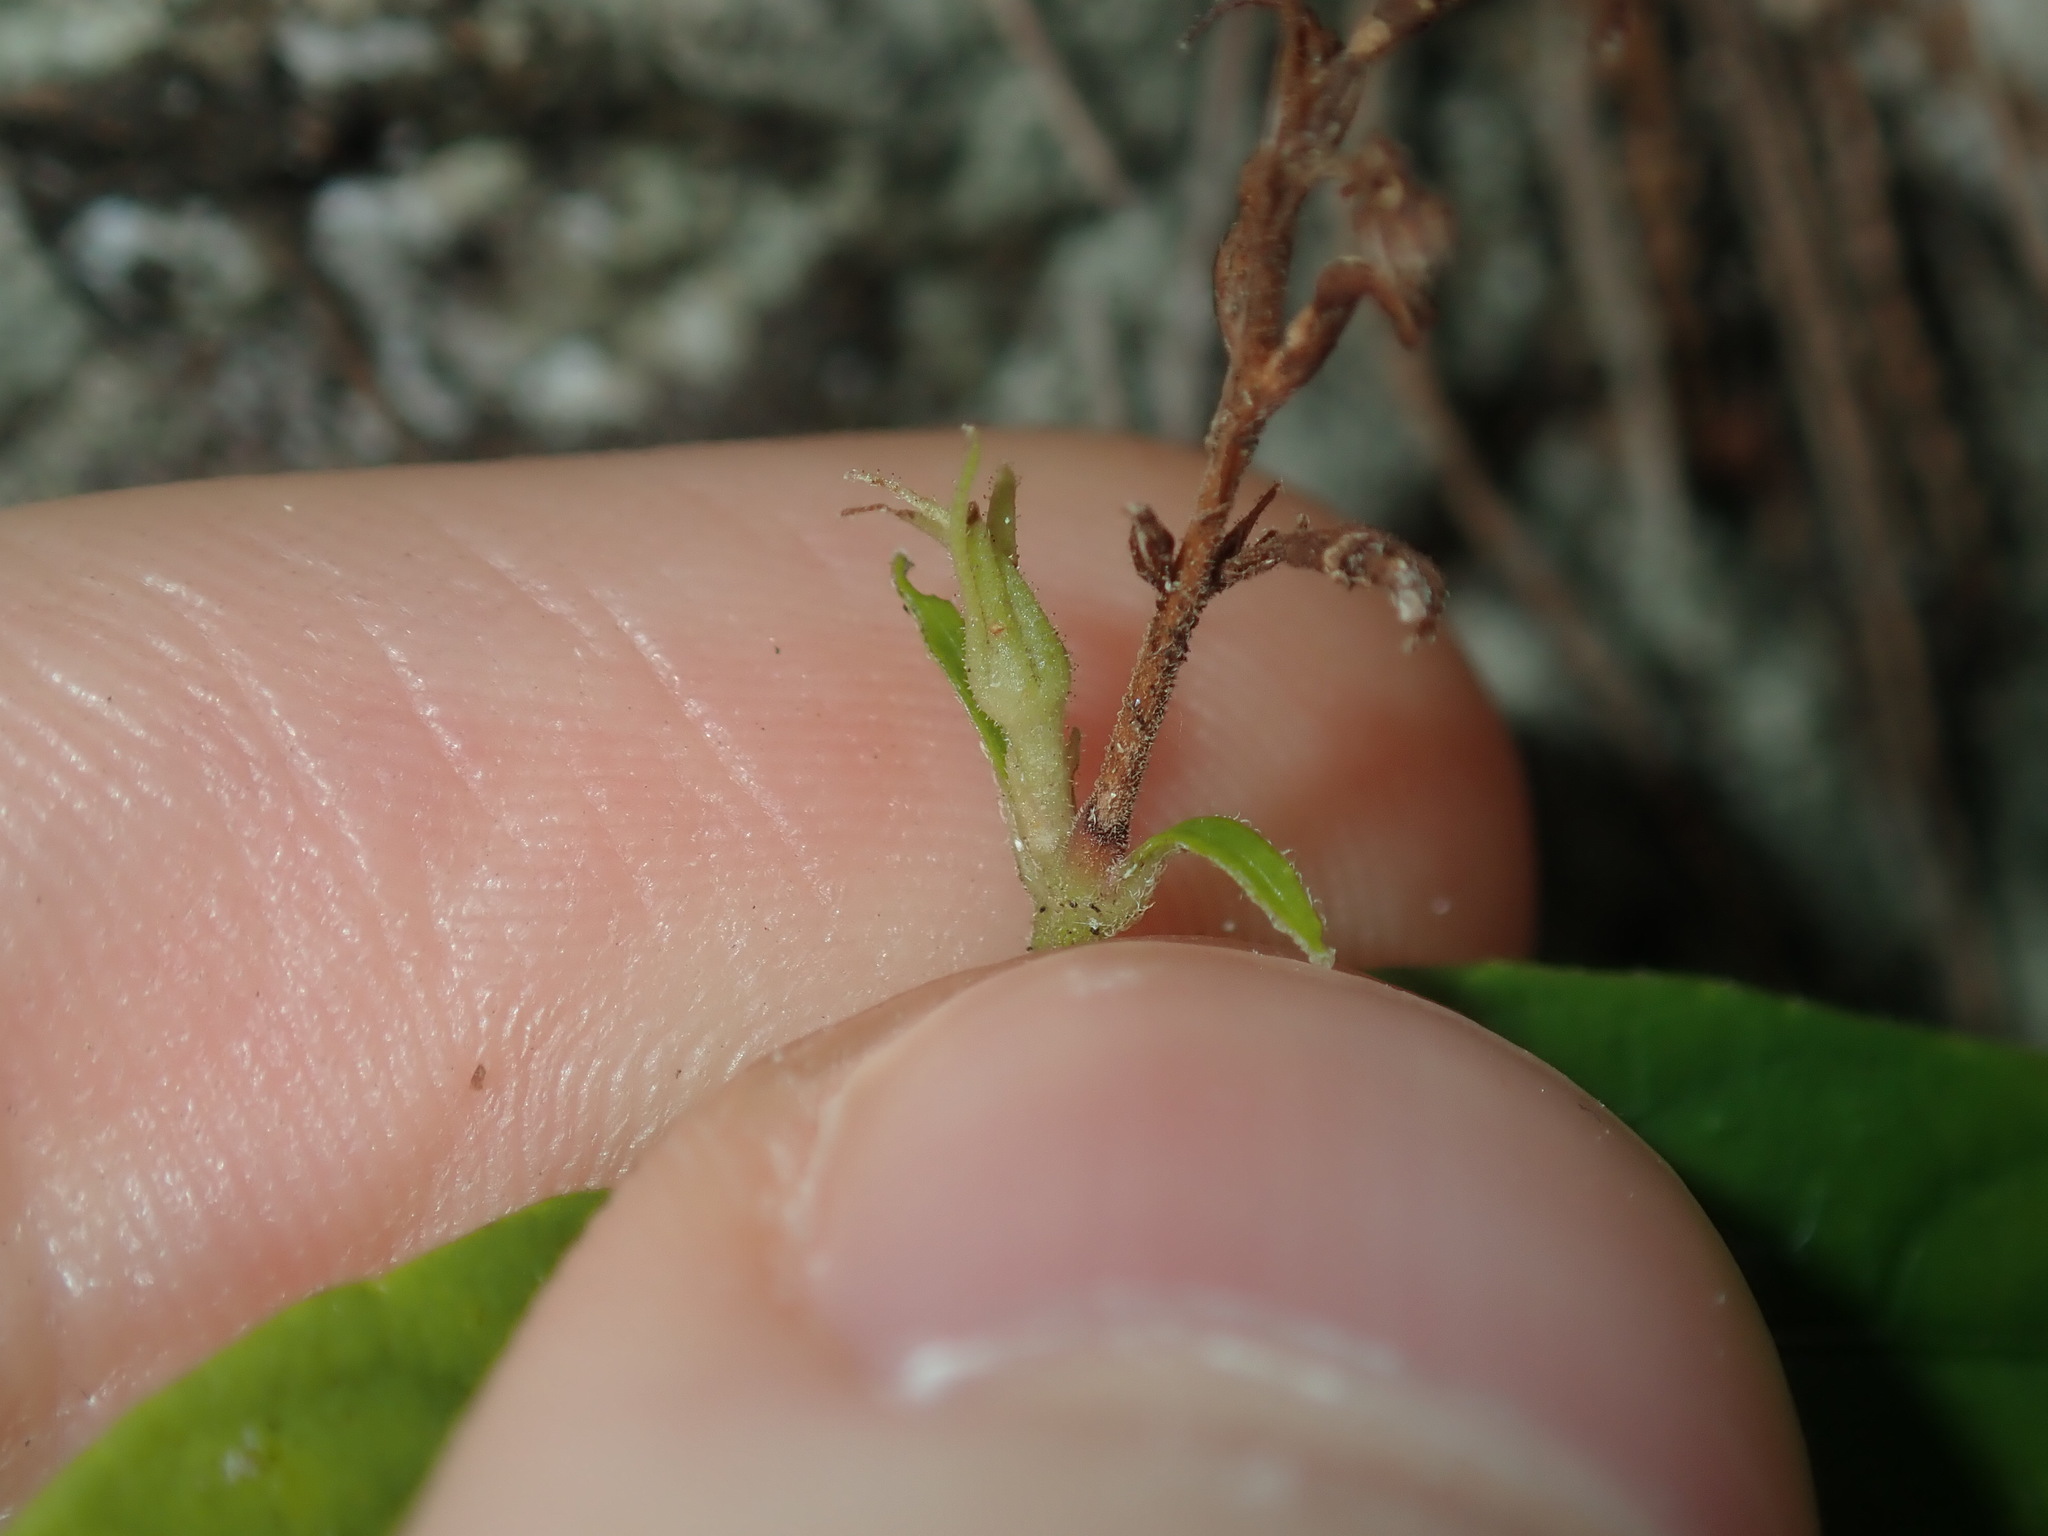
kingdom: Plantae
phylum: Tracheophyta
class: Magnoliopsida
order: Lamiales
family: Acanthaceae
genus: Pseuderanthemum
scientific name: Pseuderanthemum variabile
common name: Night and afternoon
